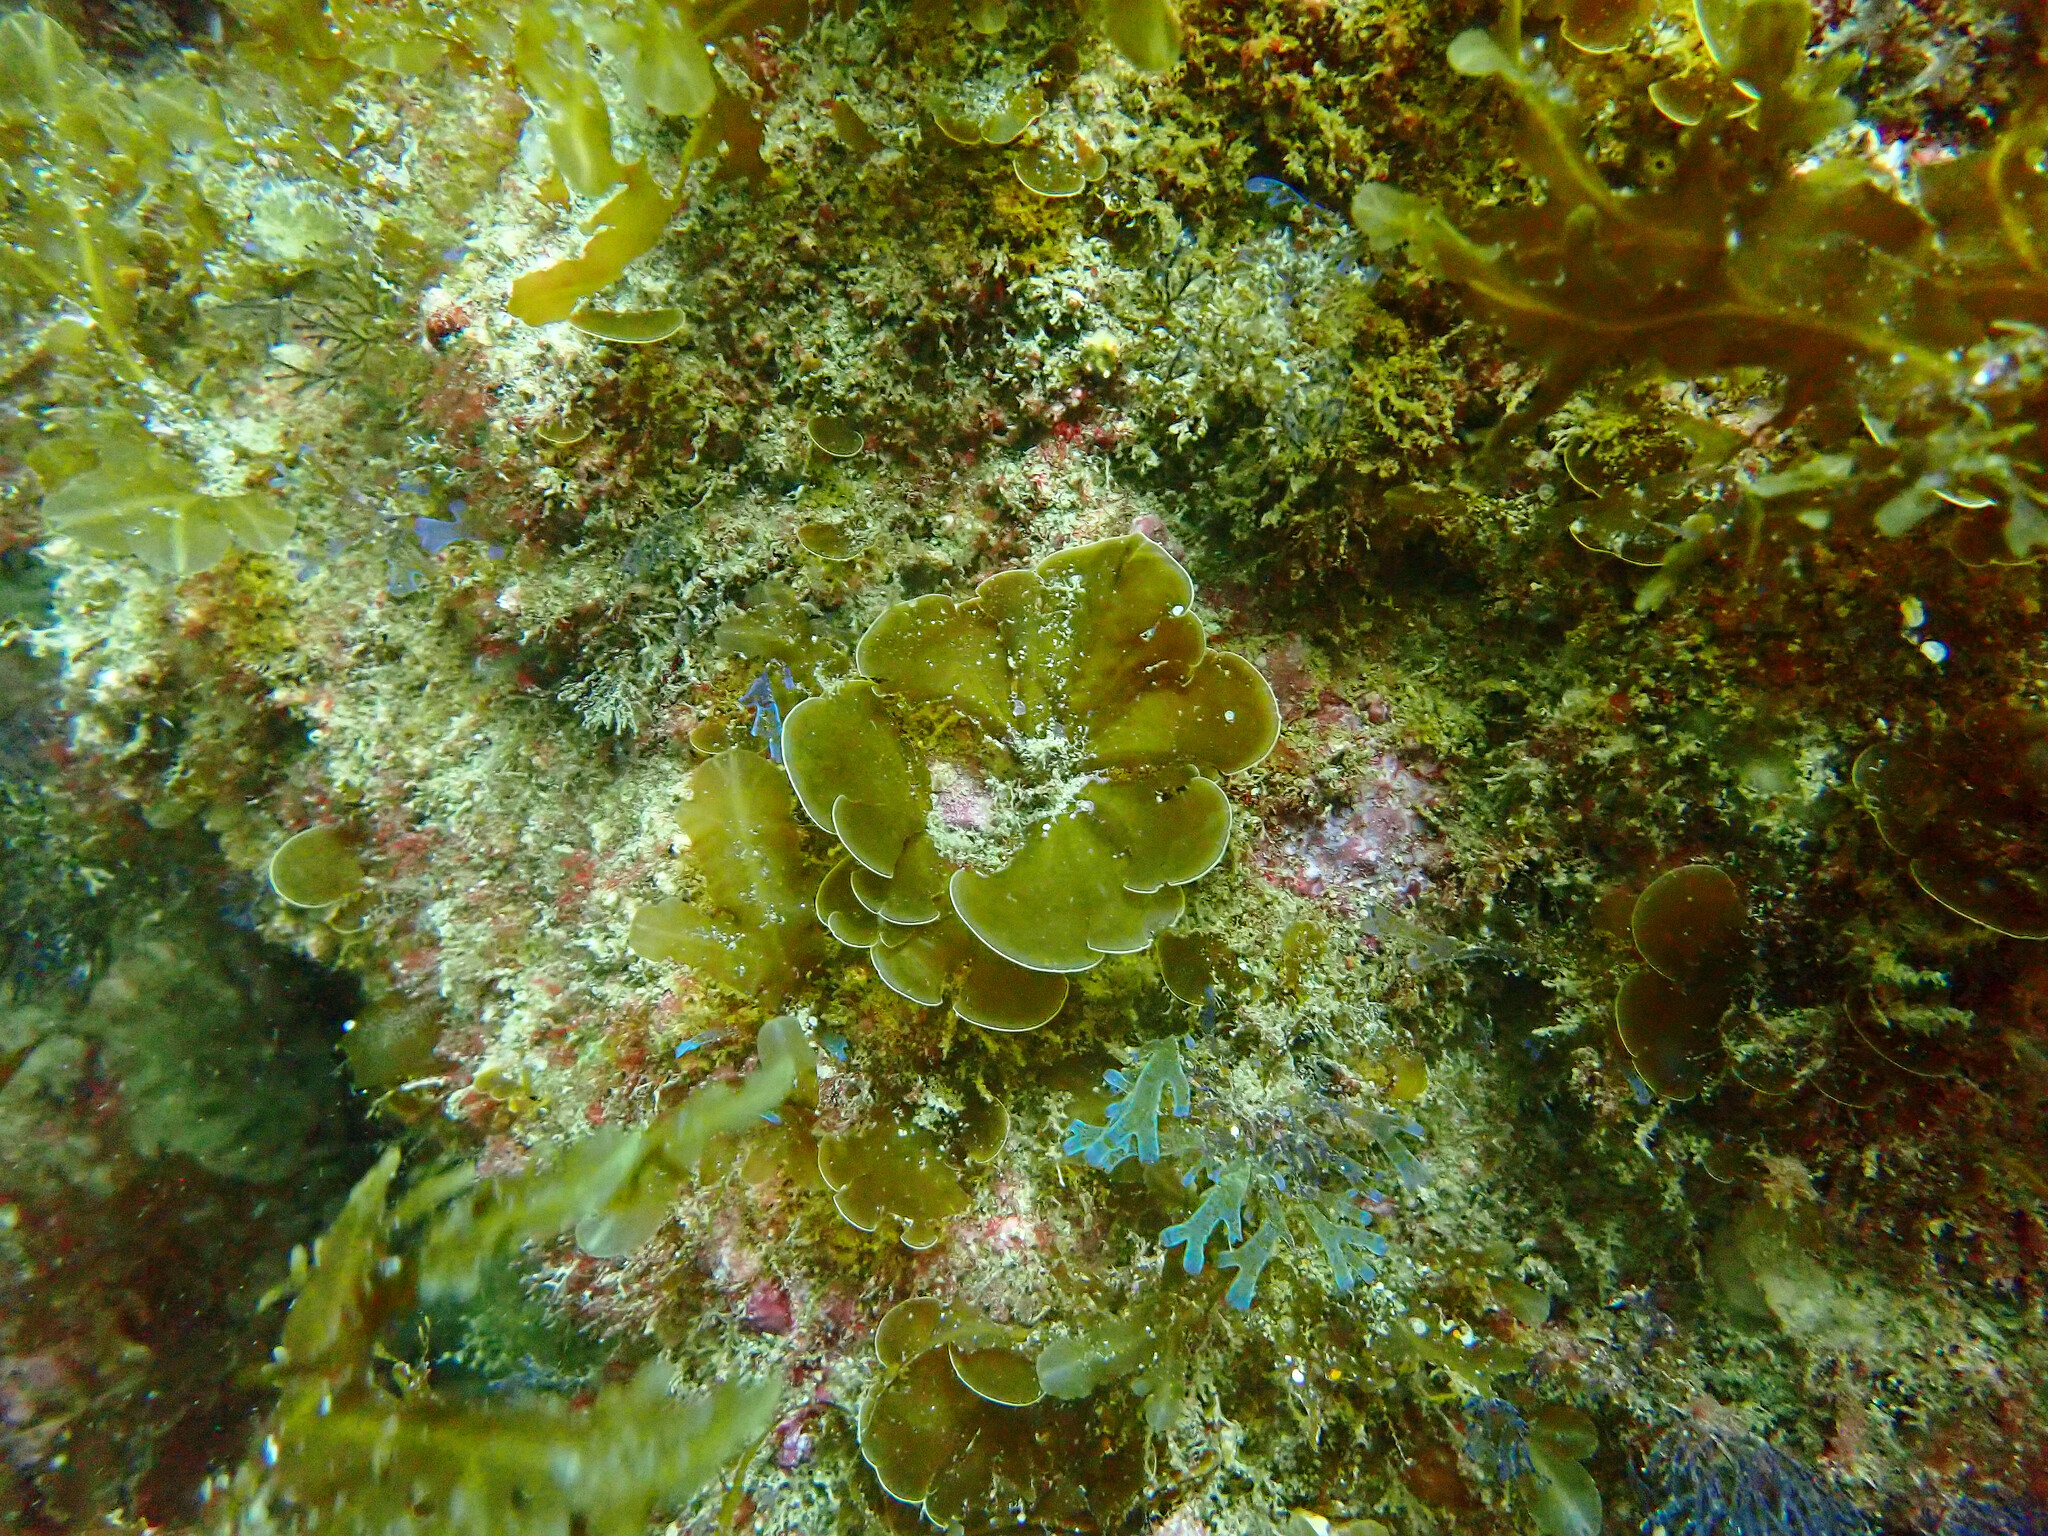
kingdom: Chromista
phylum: Ochrophyta
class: Phaeophyceae
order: Dictyotales
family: Dictyotaceae
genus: Zonaria
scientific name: Zonaria farlowii
